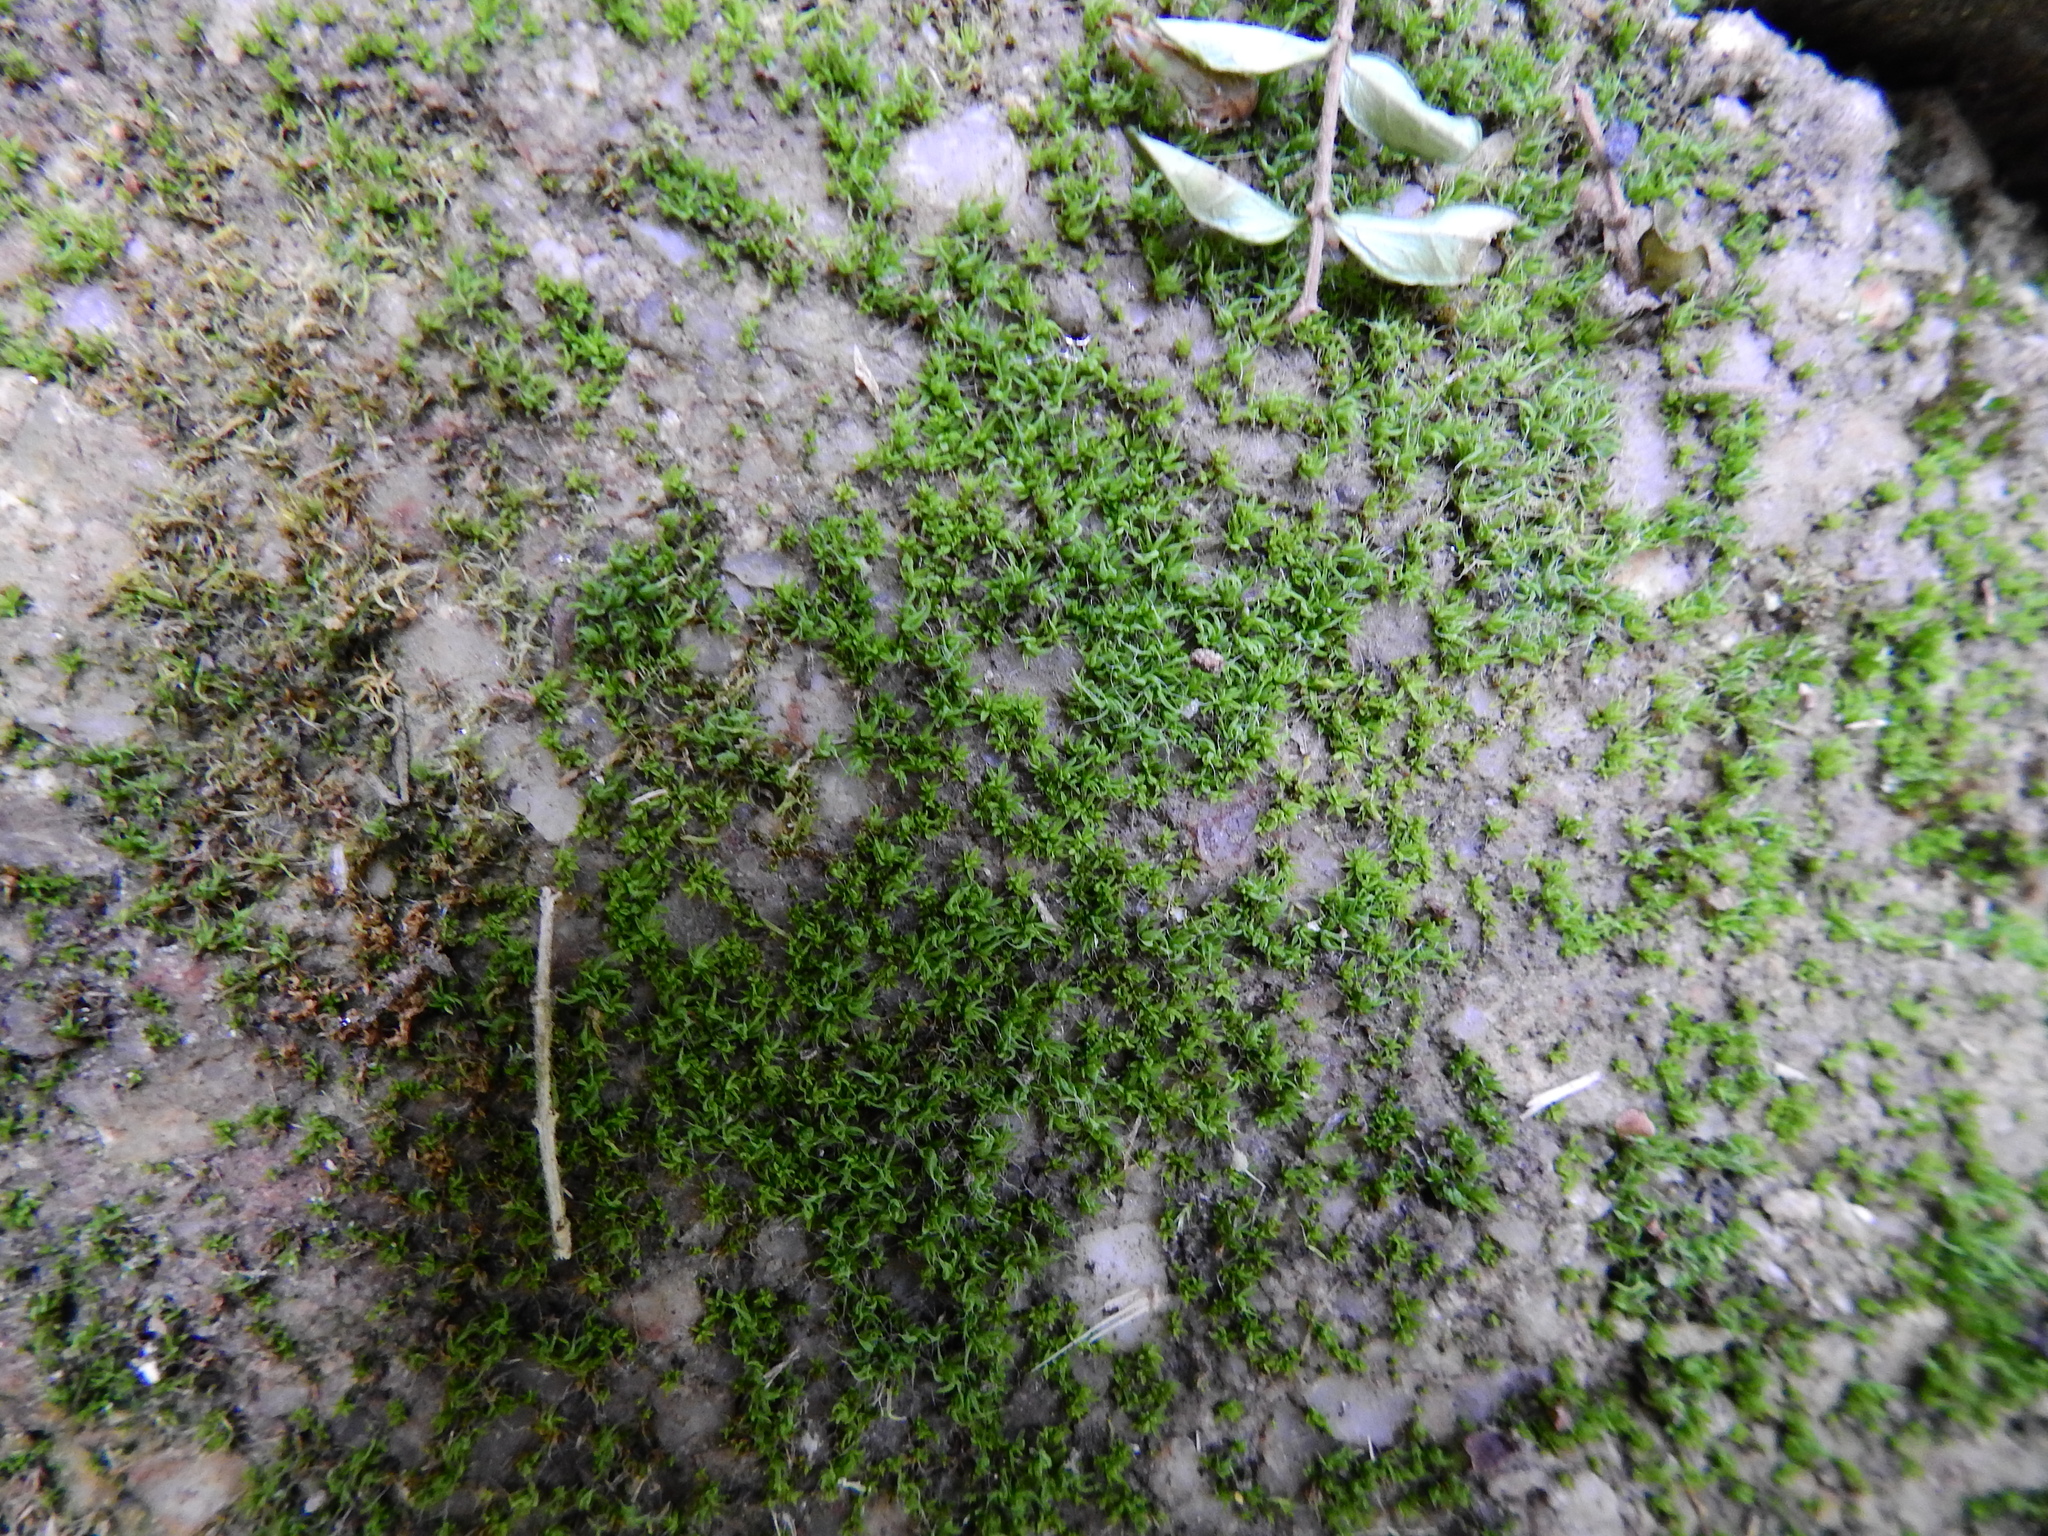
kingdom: Plantae
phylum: Bryophyta
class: Bryopsida
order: Pottiales
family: Pottiaceae
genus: Tortula
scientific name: Tortula muralis
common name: Wall screw-moss
